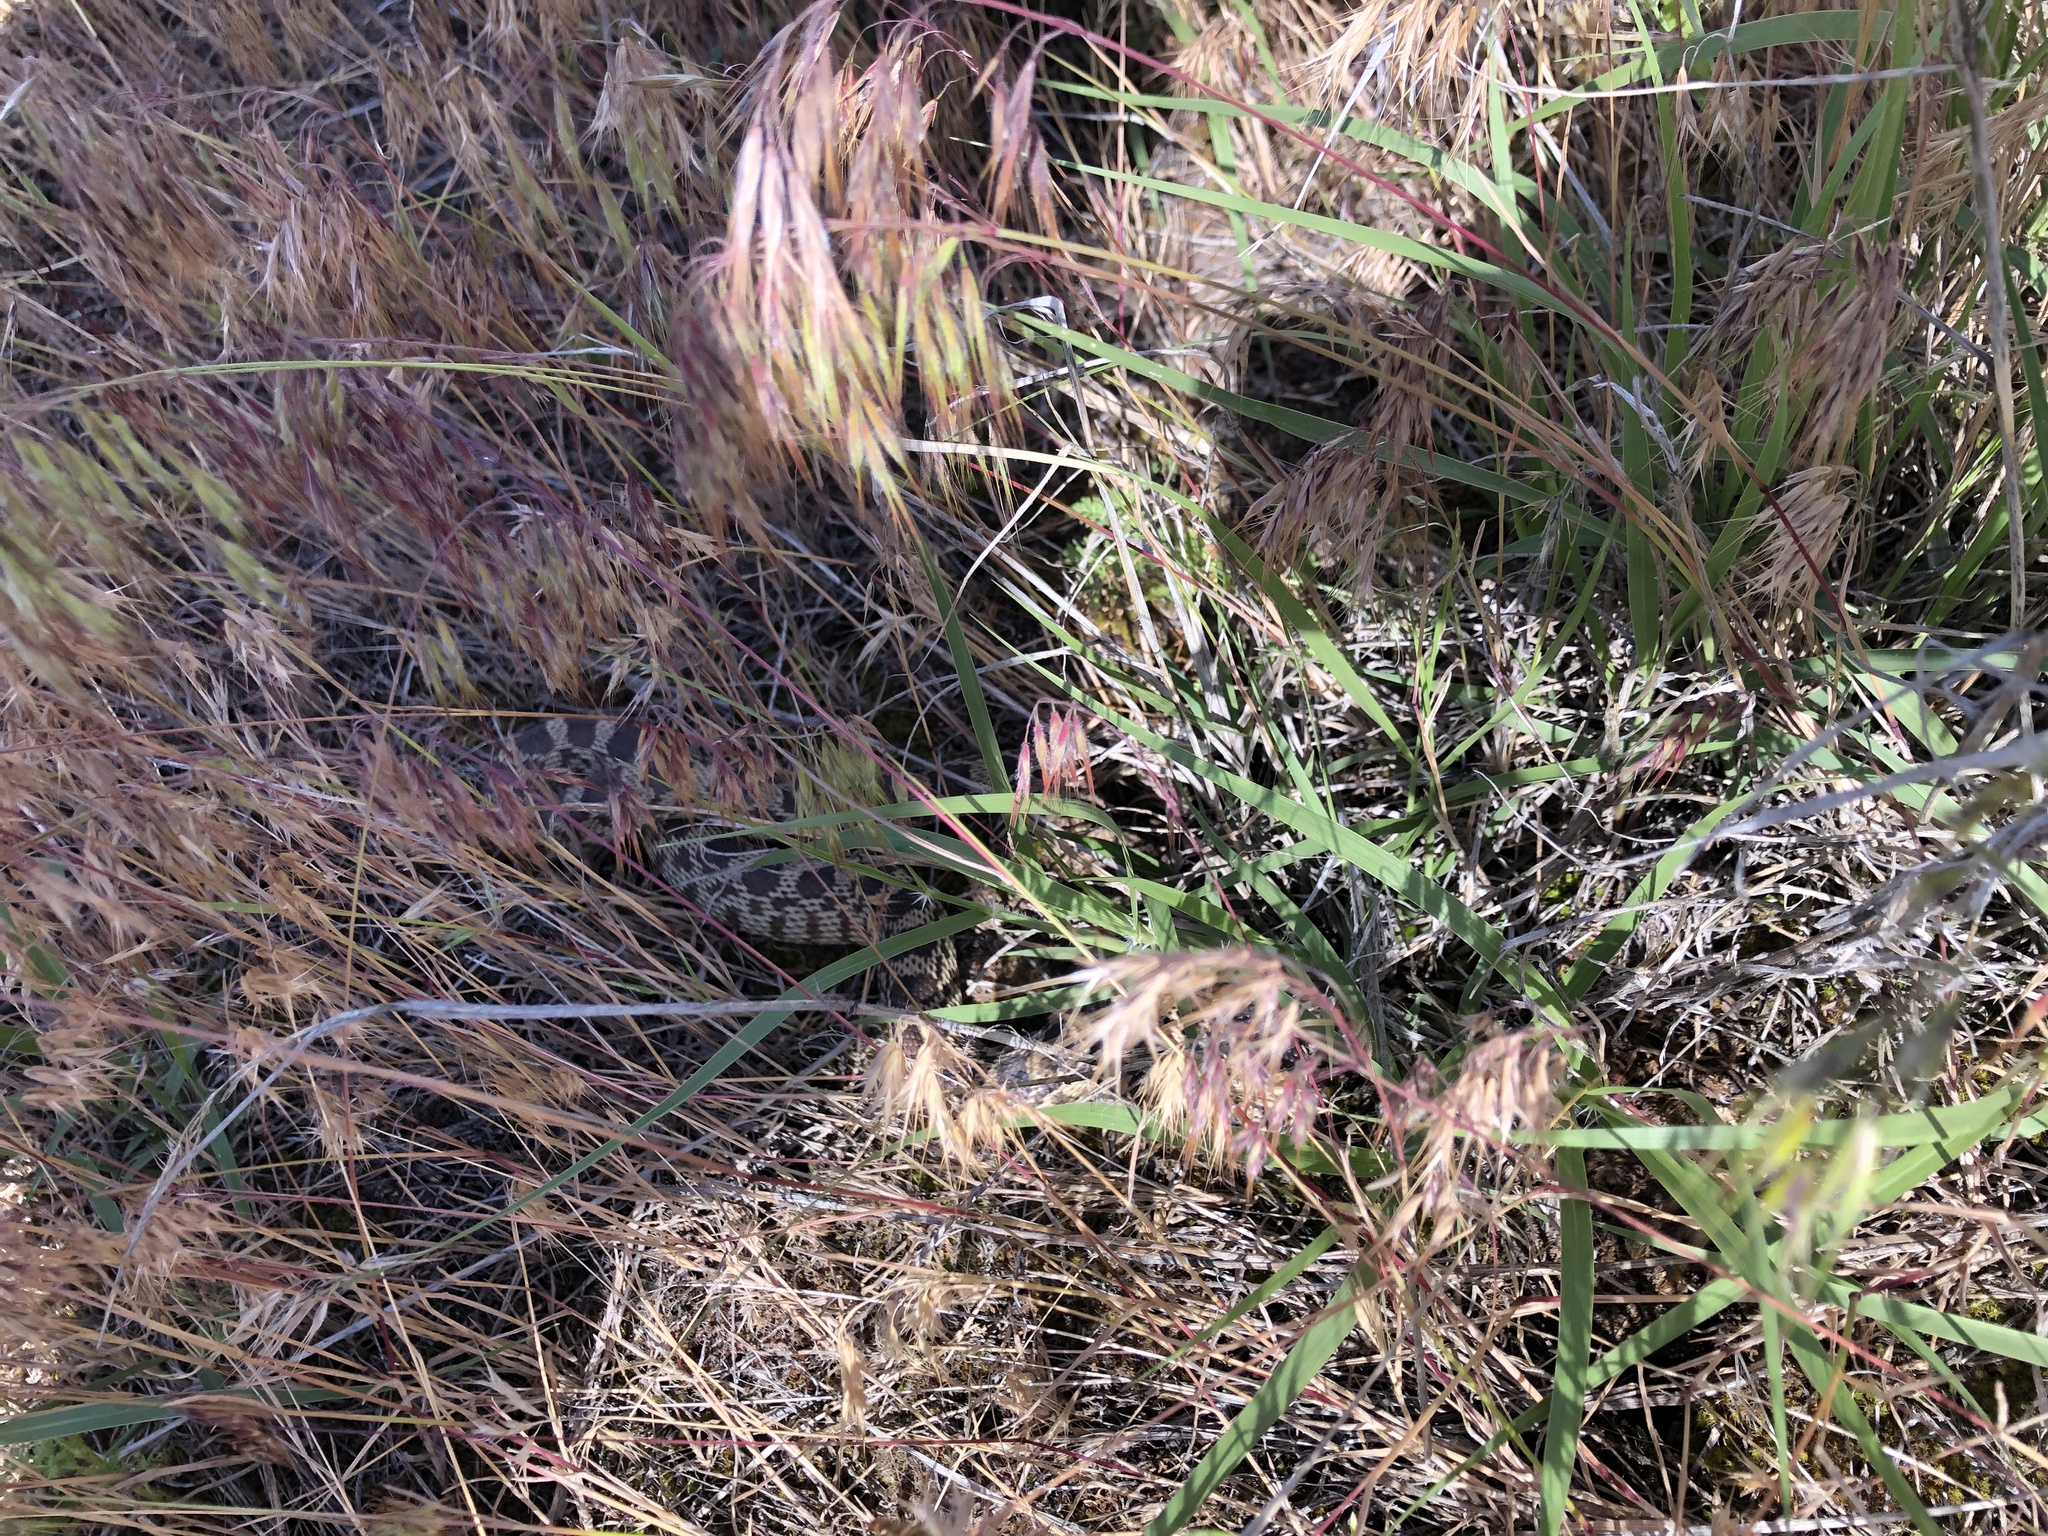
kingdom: Animalia
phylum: Chordata
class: Squamata
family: Colubridae
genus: Pituophis
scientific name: Pituophis catenifer
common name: Gopher snake
